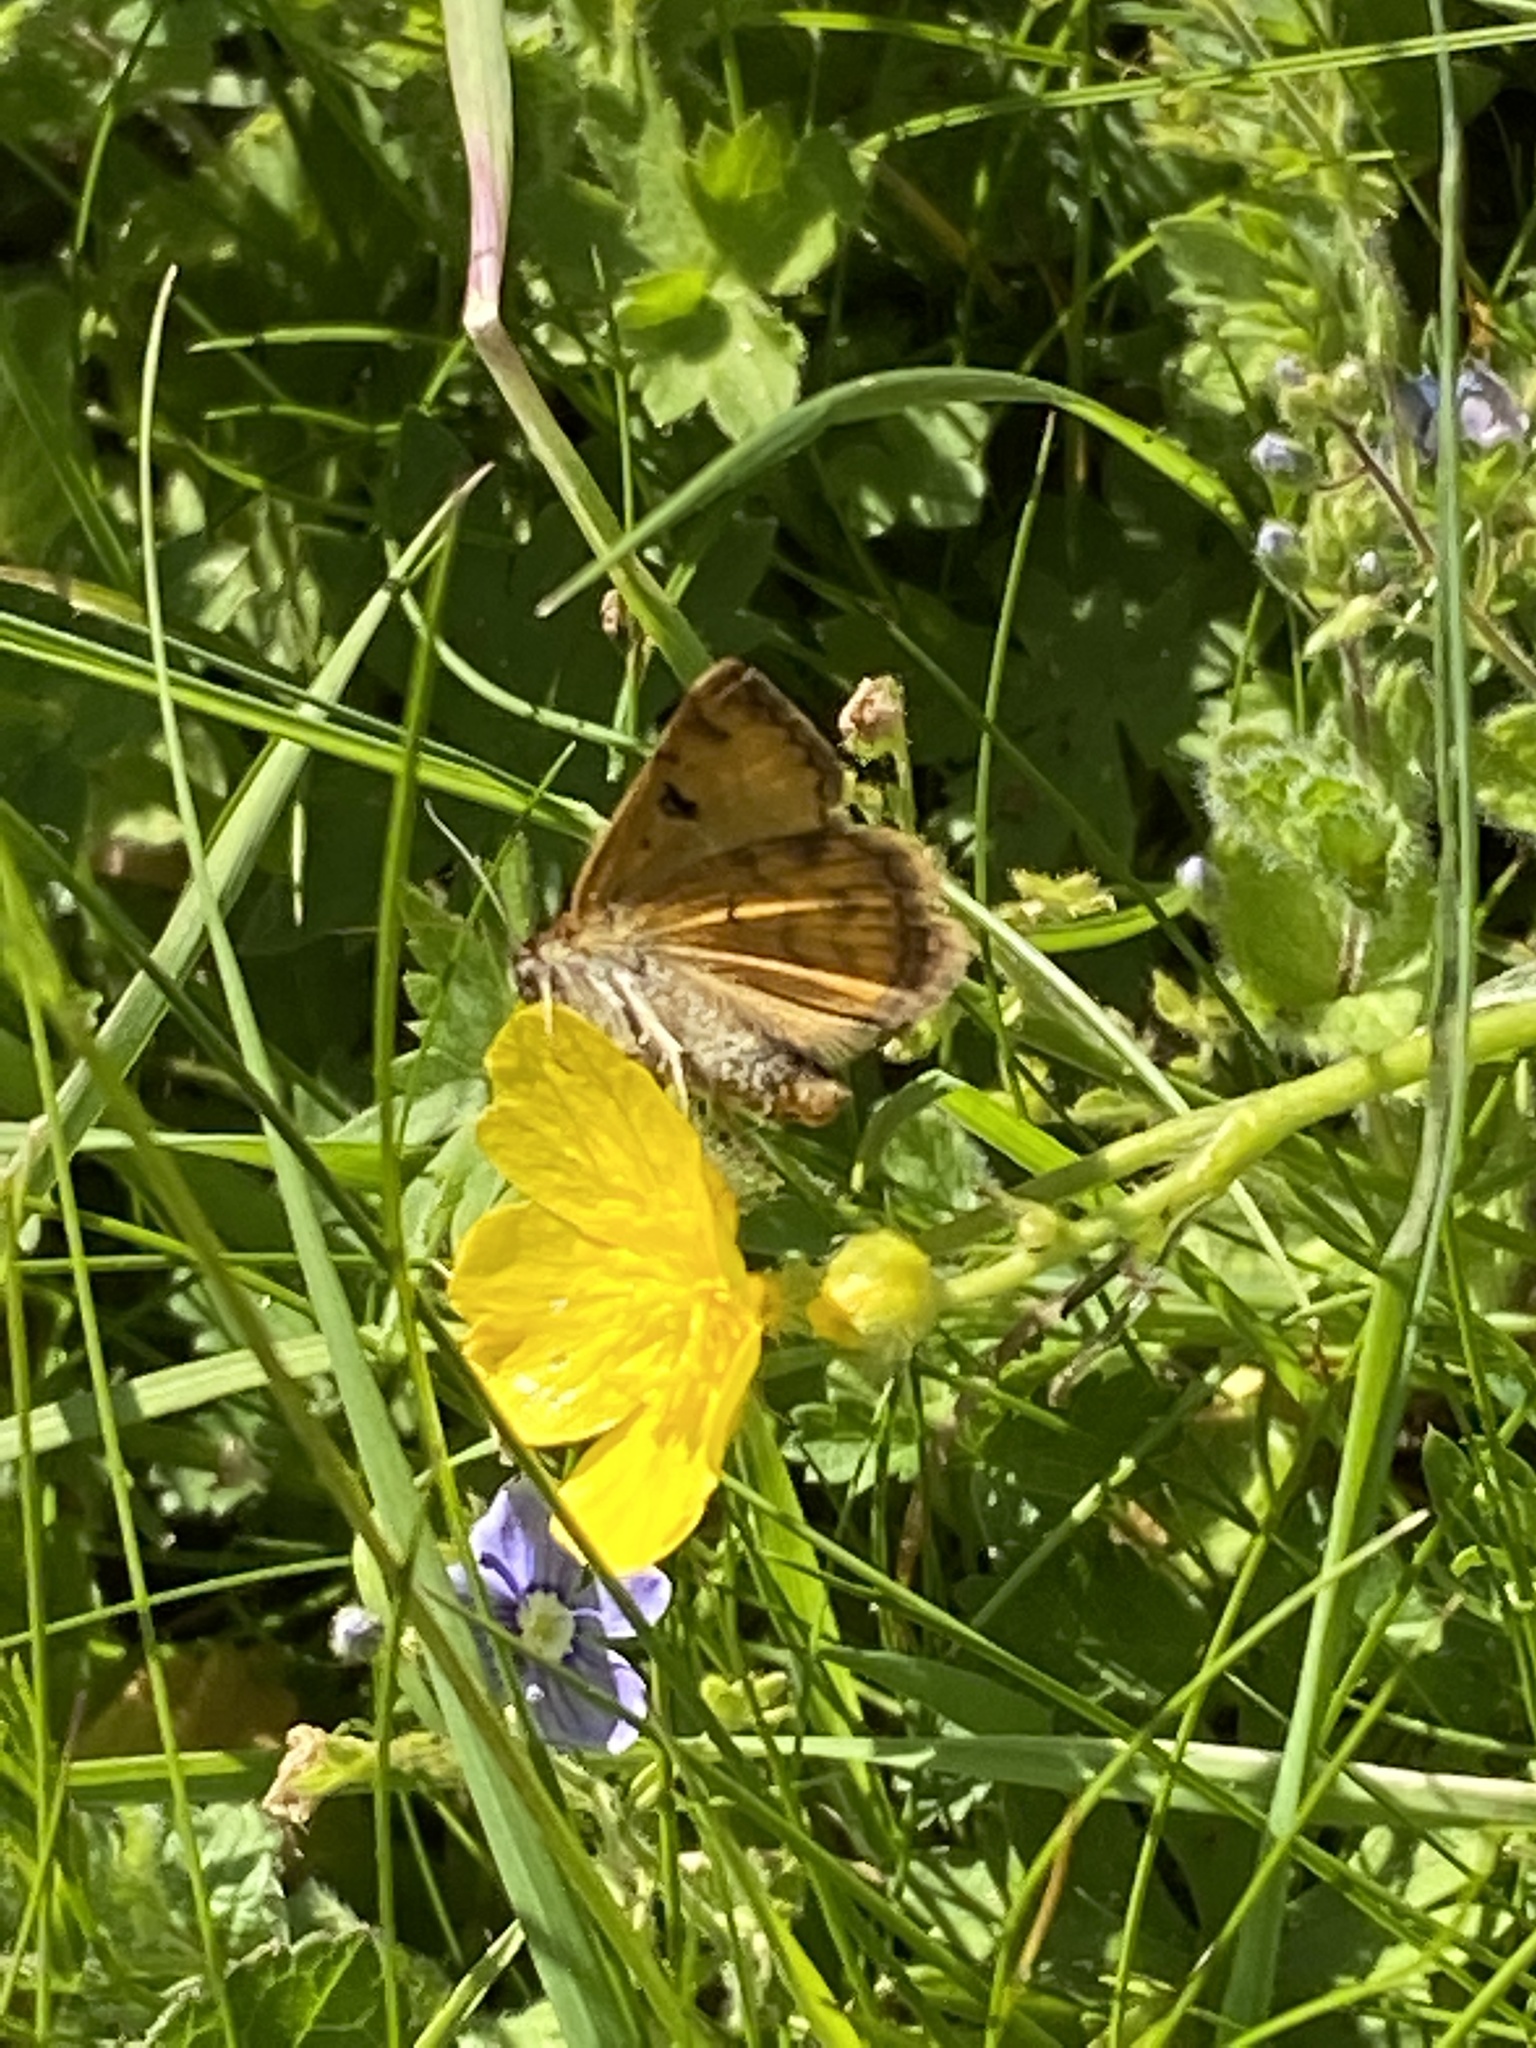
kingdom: Animalia
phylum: Arthropoda
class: Insecta
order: Lepidoptera
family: Erebidae
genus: Euclidia
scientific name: Euclidia glyphica
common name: Burnet companion
